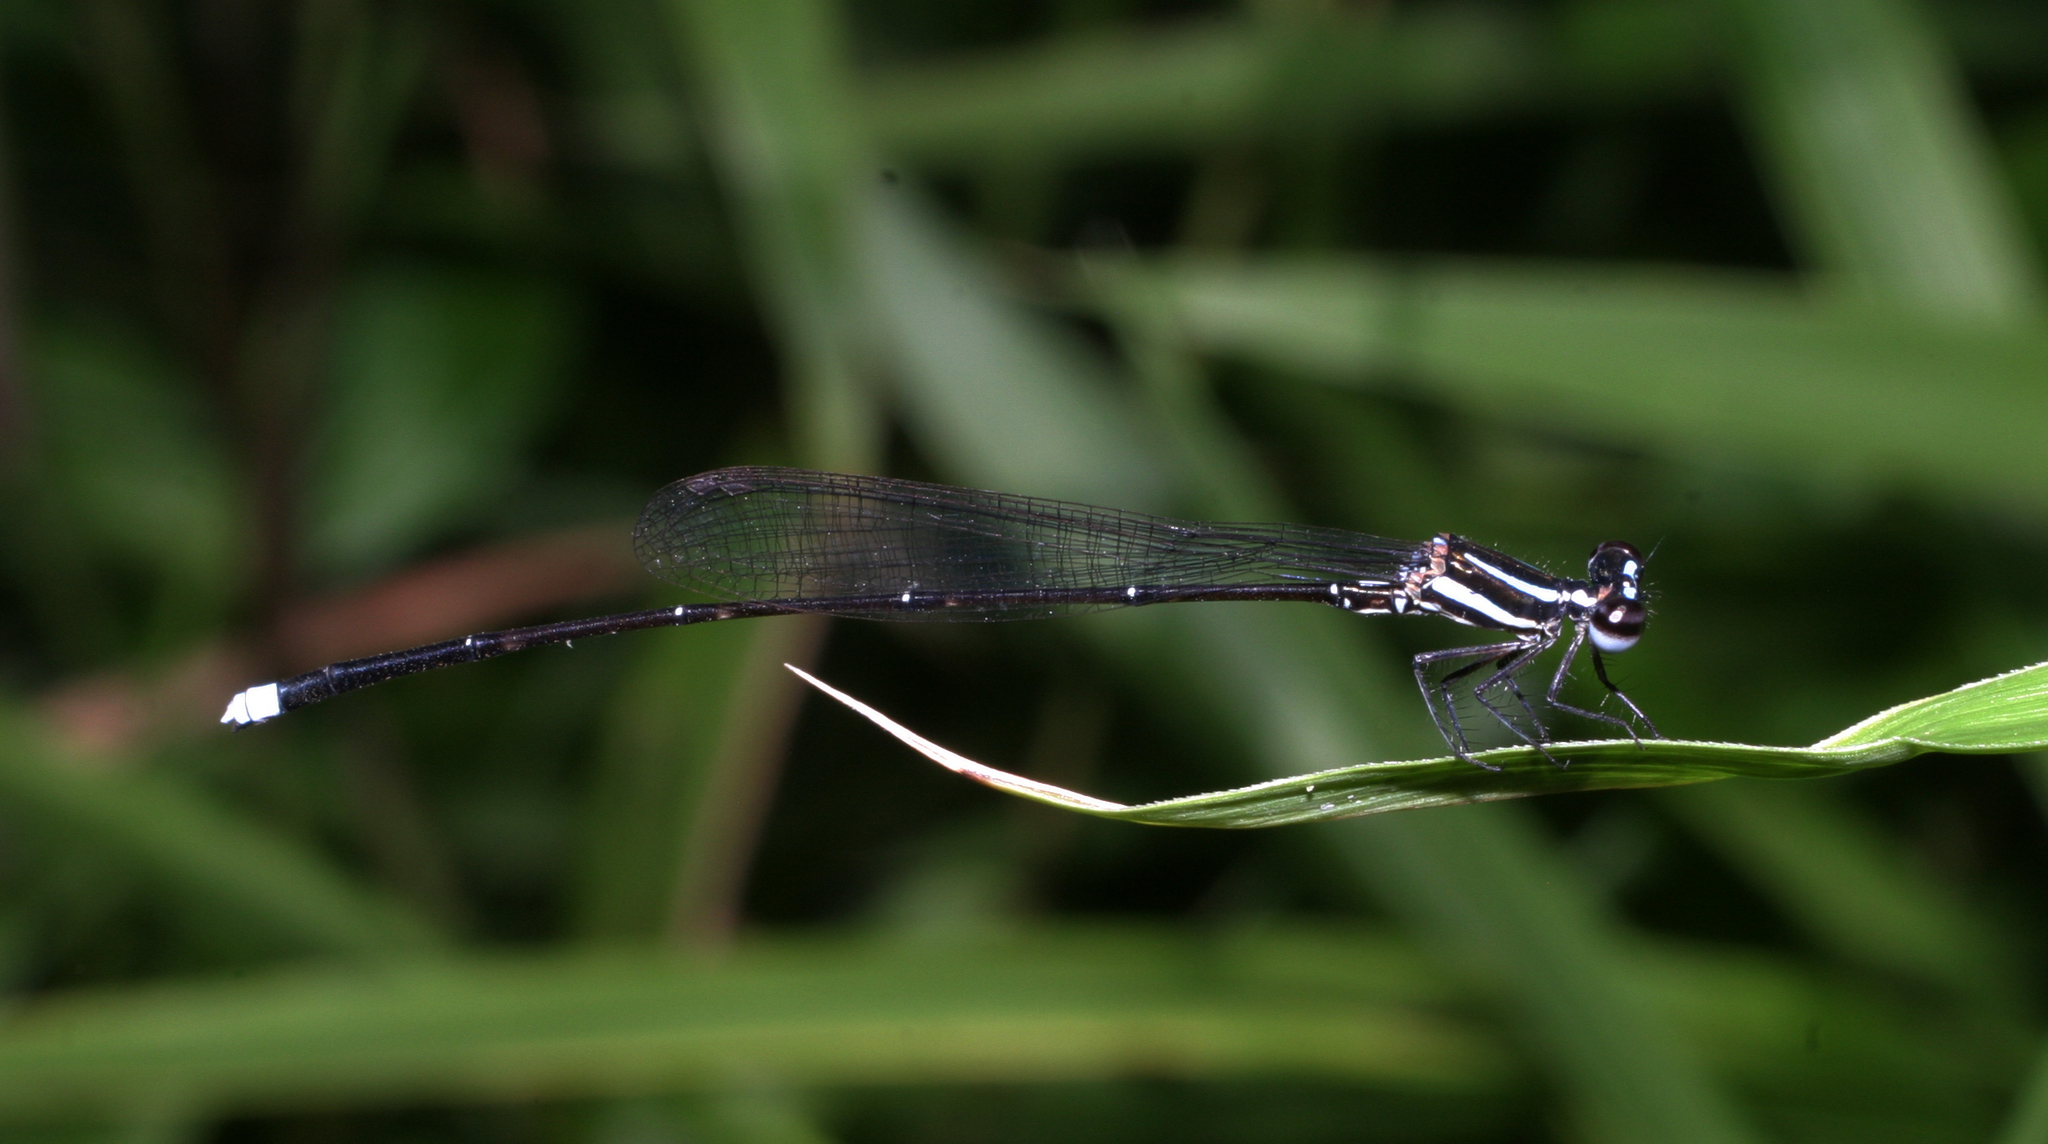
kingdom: Animalia
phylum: Arthropoda
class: Insecta
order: Odonata
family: Platycnemididae
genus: Prodasineura
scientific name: Prodasineura laidlawii
